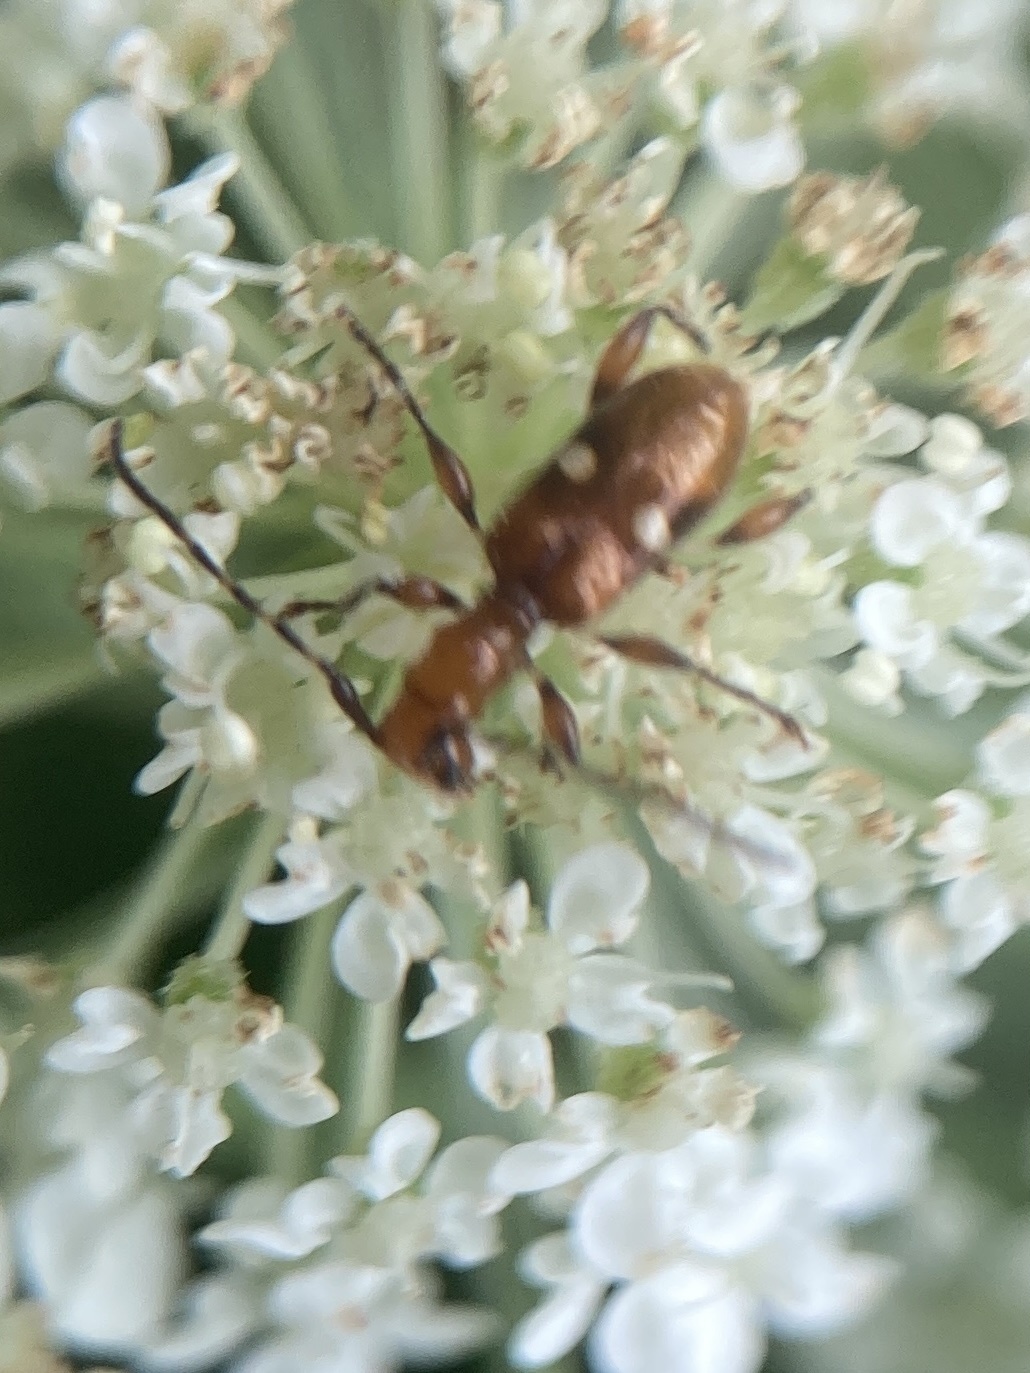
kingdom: Animalia
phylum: Arthropoda
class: Insecta
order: Coleoptera
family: Cerambycidae
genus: Zorion
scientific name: Zorion batesi
